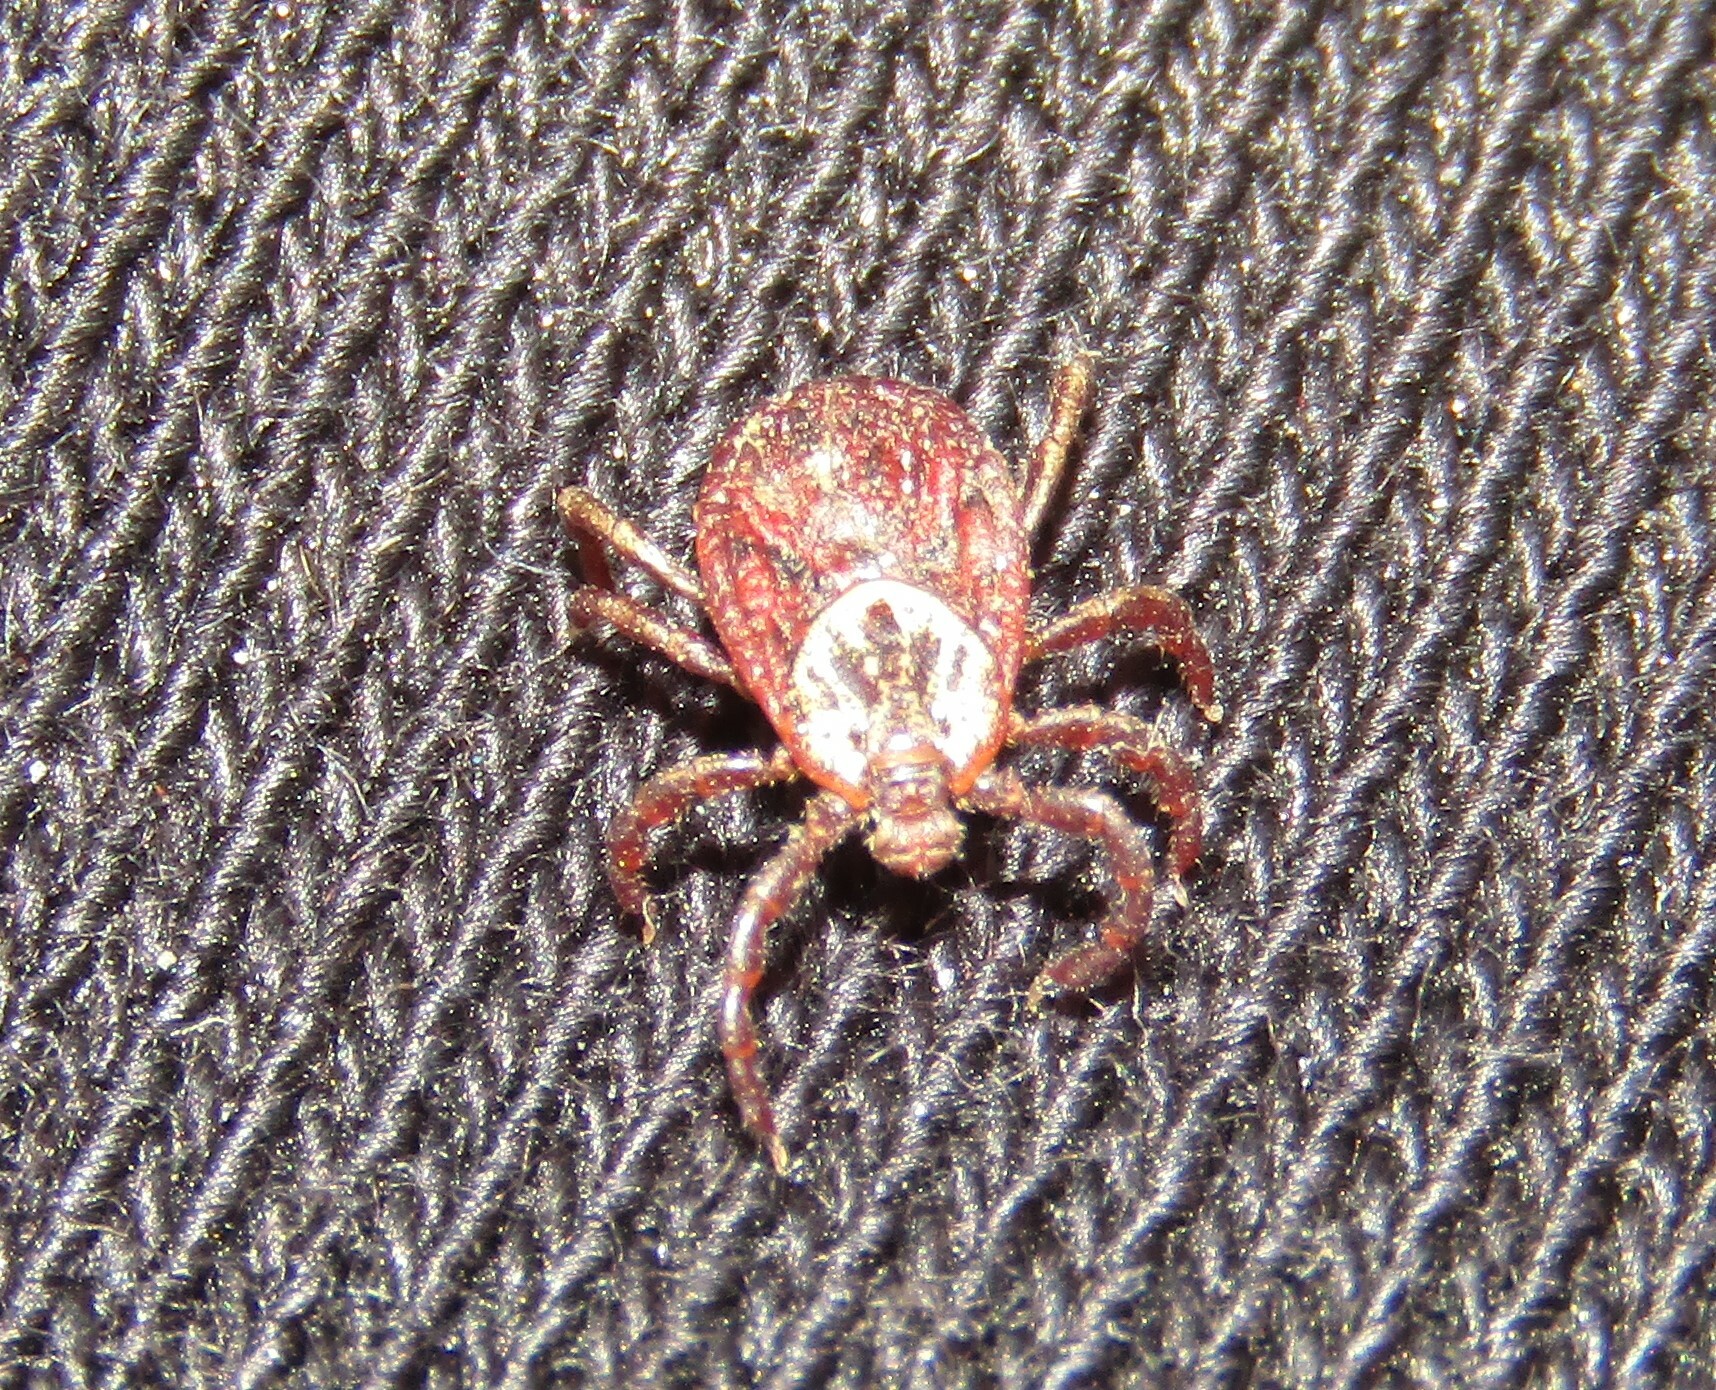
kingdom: Animalia
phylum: Arthropoda
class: Arachnida
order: Ixodida
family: Ixodidae
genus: Dermacentor
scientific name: Dermacentor reticulatus
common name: Ornate cow tick
